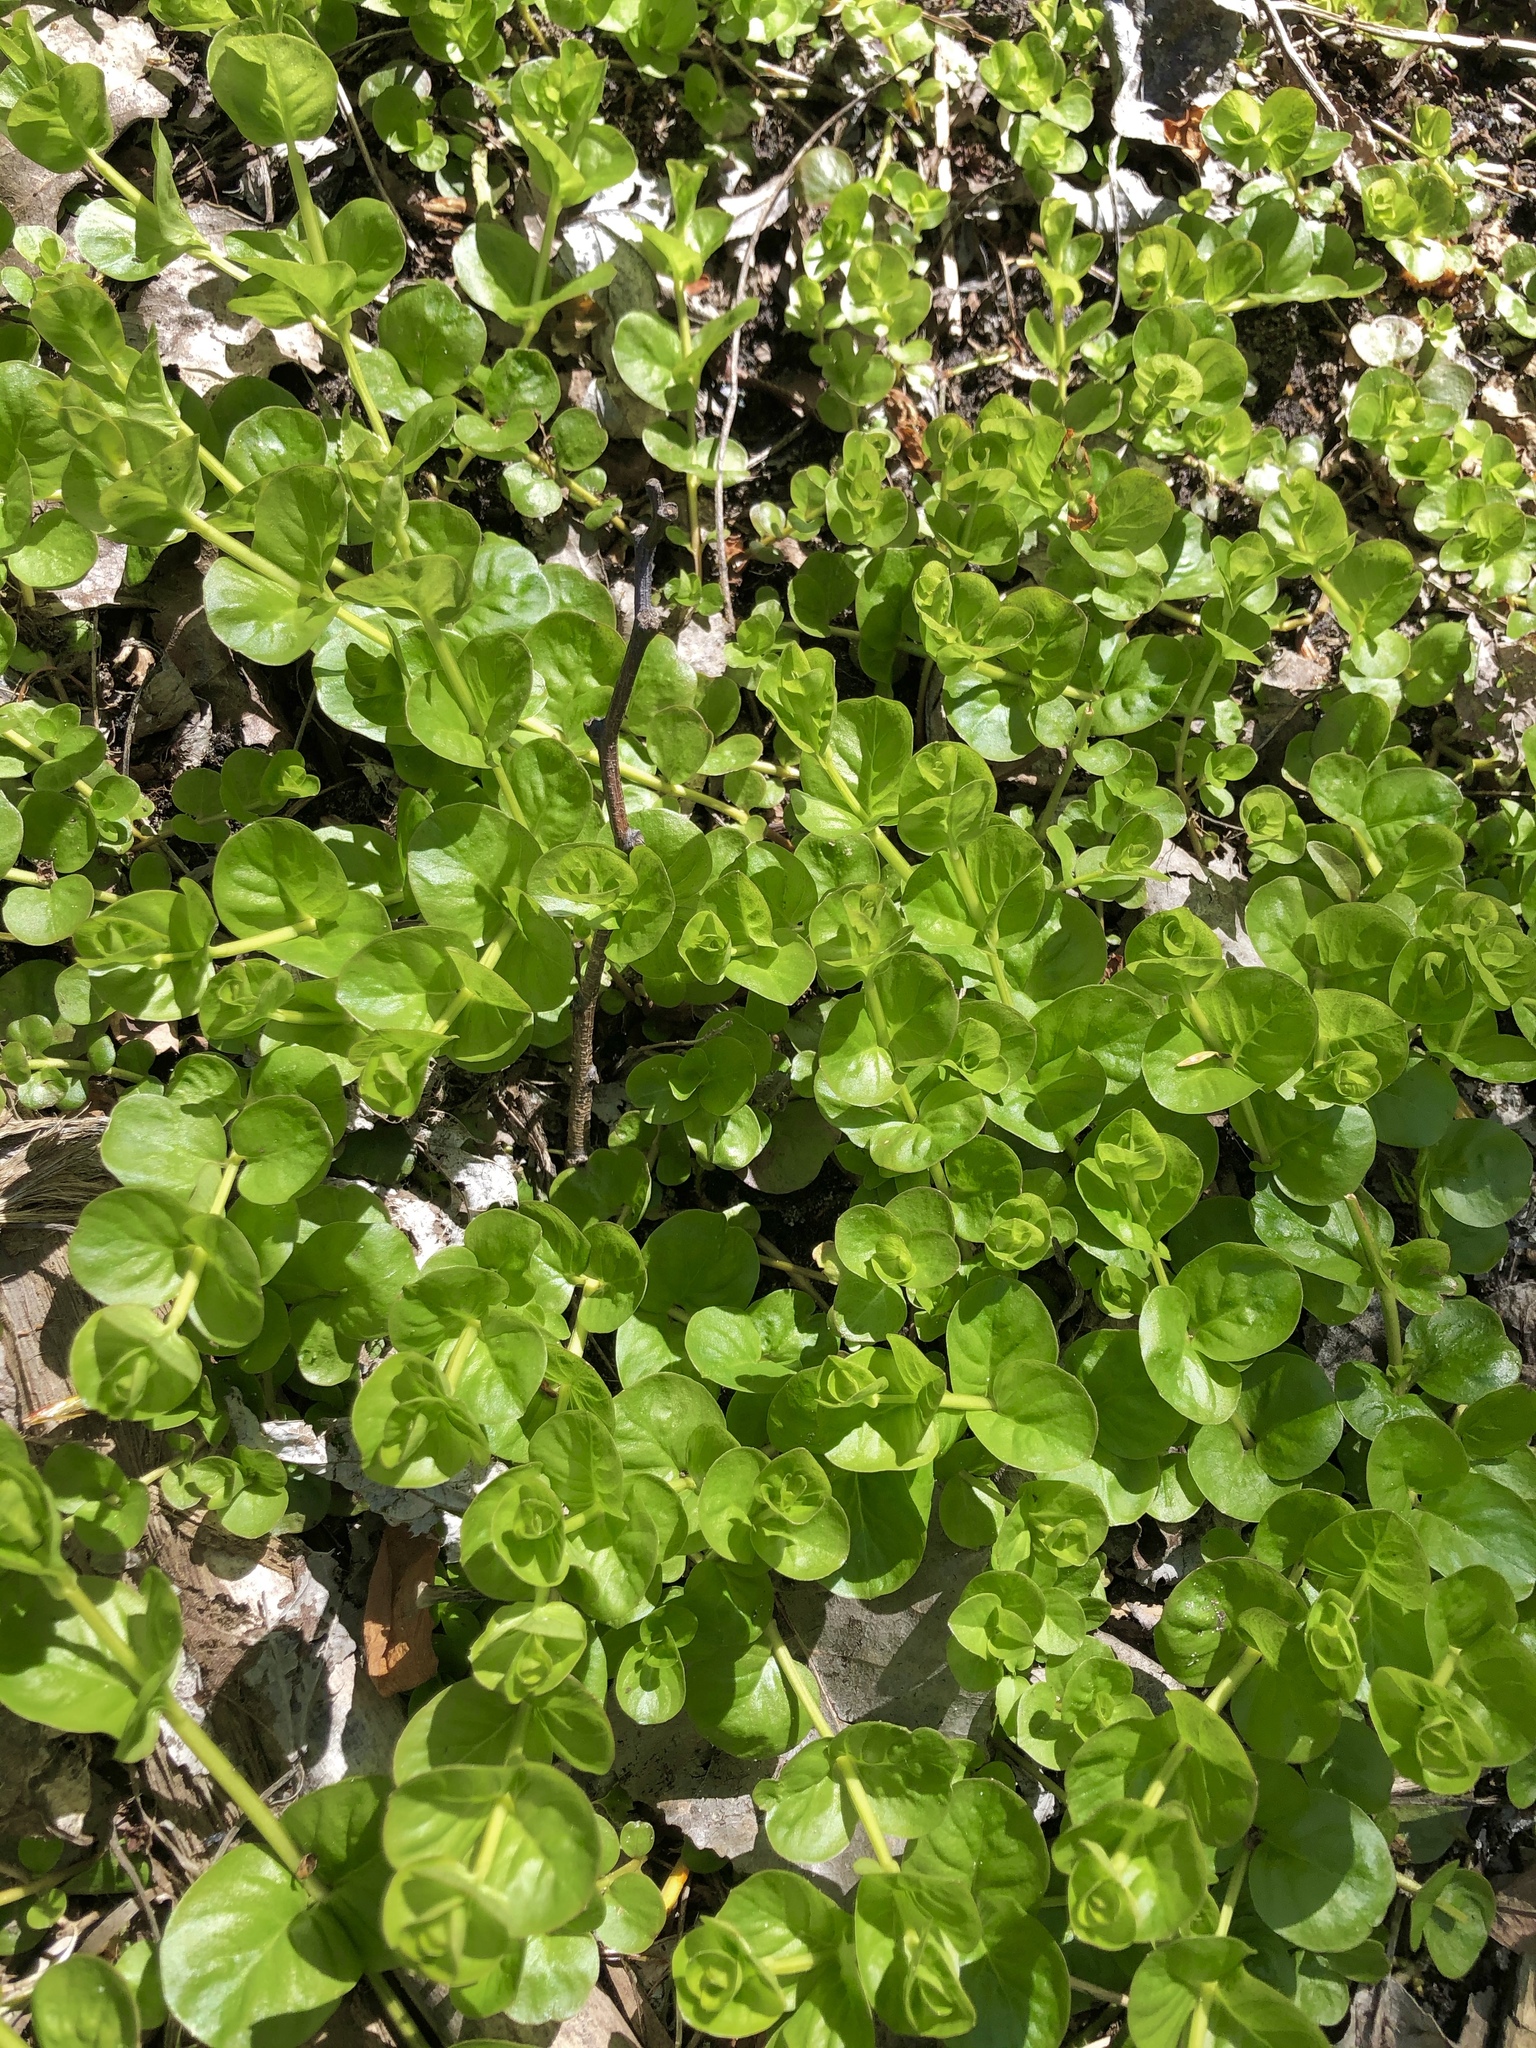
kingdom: Plantae
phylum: Tracheophyta
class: Magnoliopsida
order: Ericales
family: Primulaceae
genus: Lysimachia
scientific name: Lysimachia nummularia
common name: Moneywort
